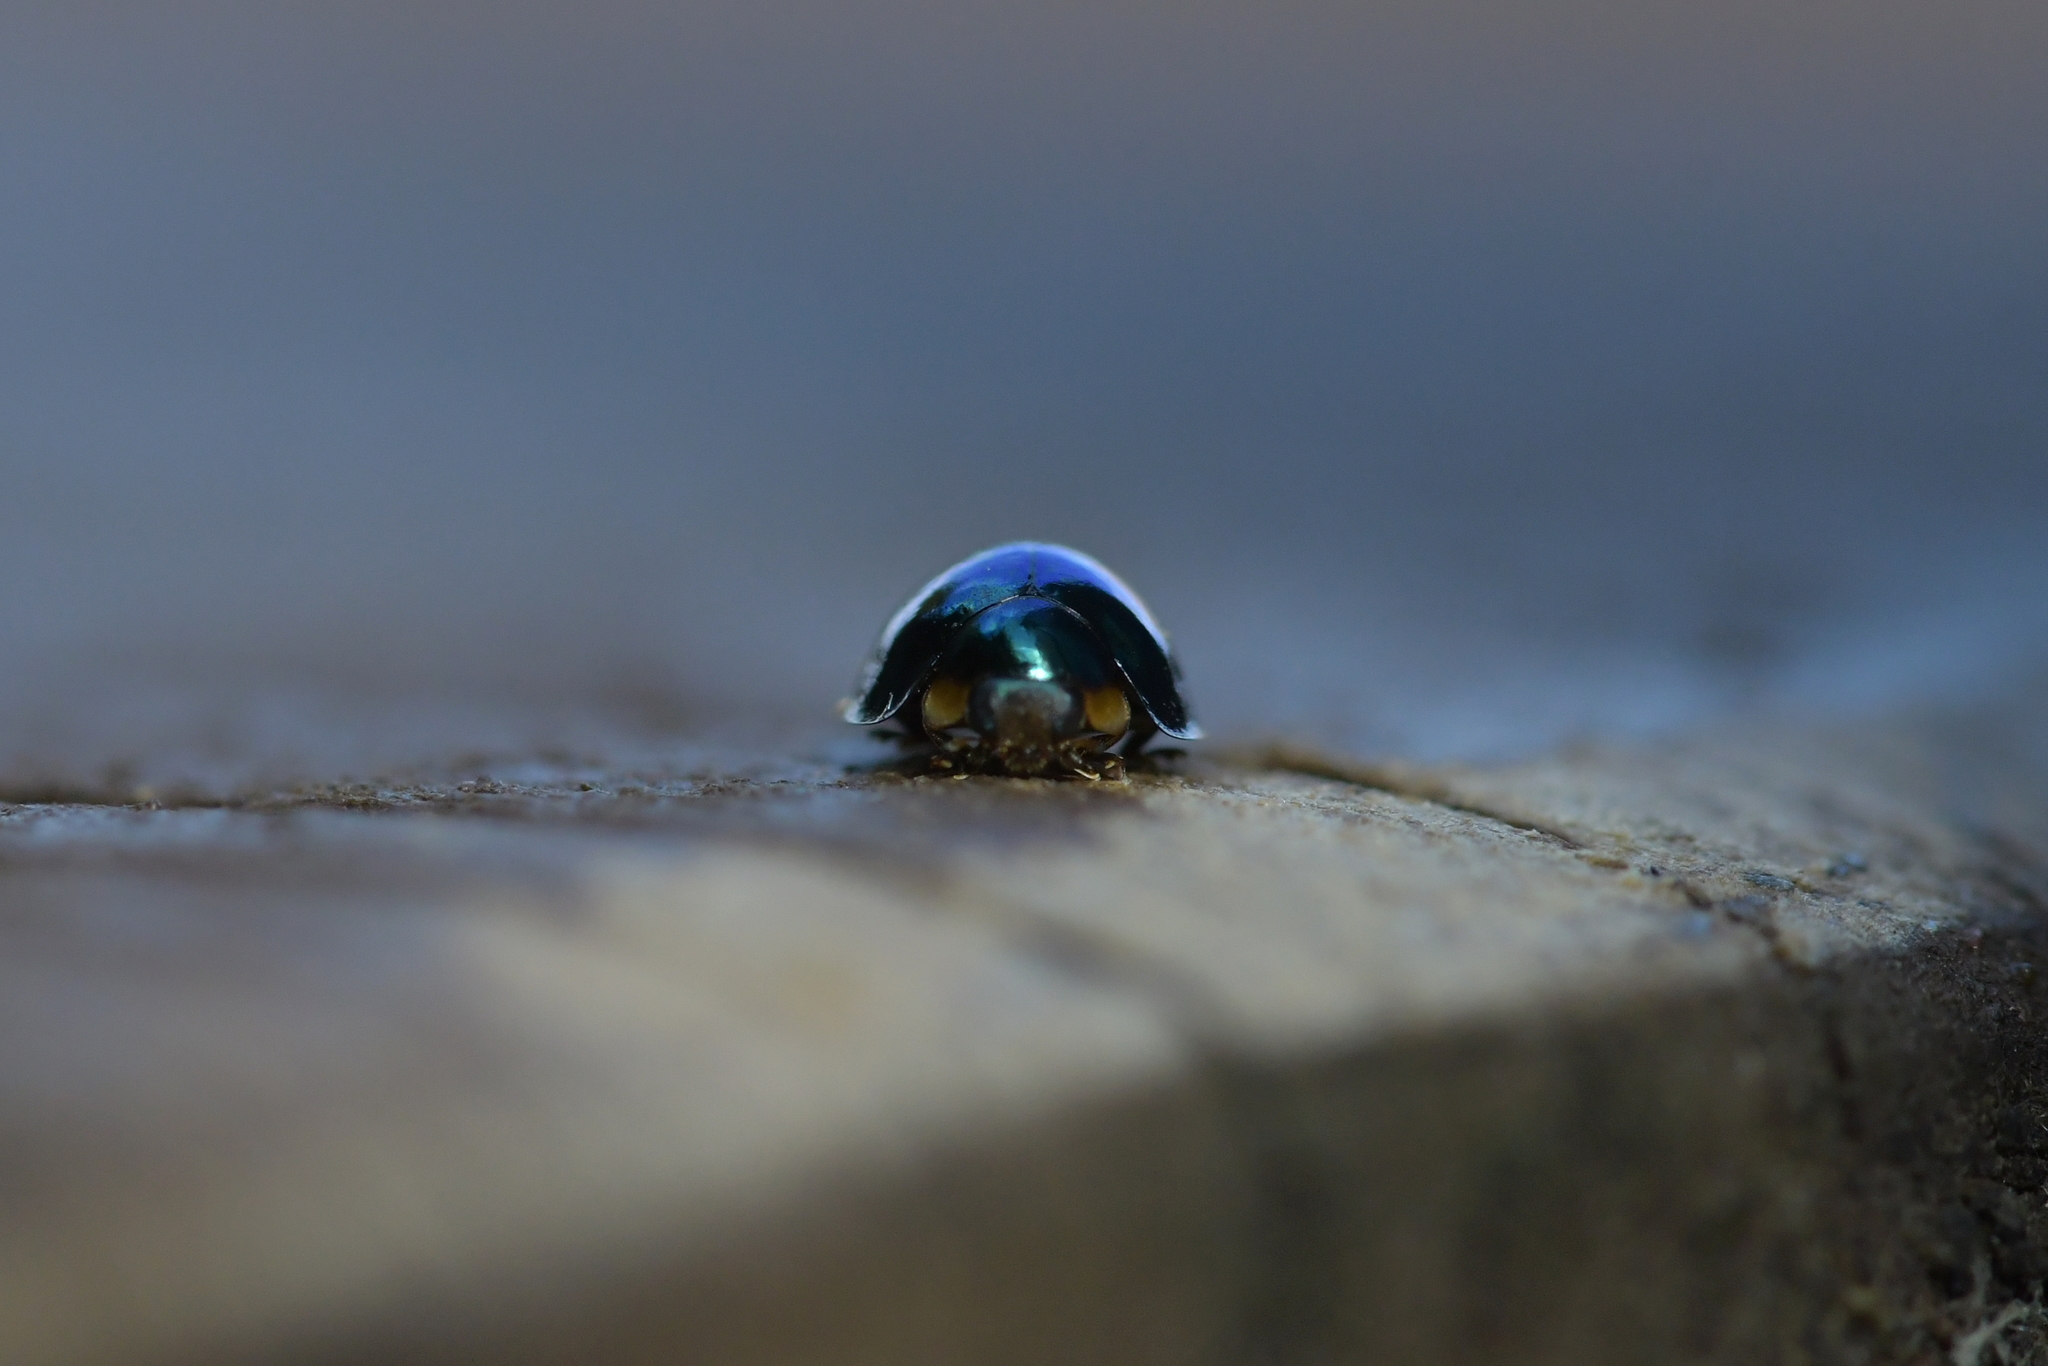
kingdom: Animalia
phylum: Arthropoda
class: Insecta
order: Coleoptera
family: Coccinellidae
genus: Halmus
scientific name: Halmus chalybeus
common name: Steel blue ladybird beetle
